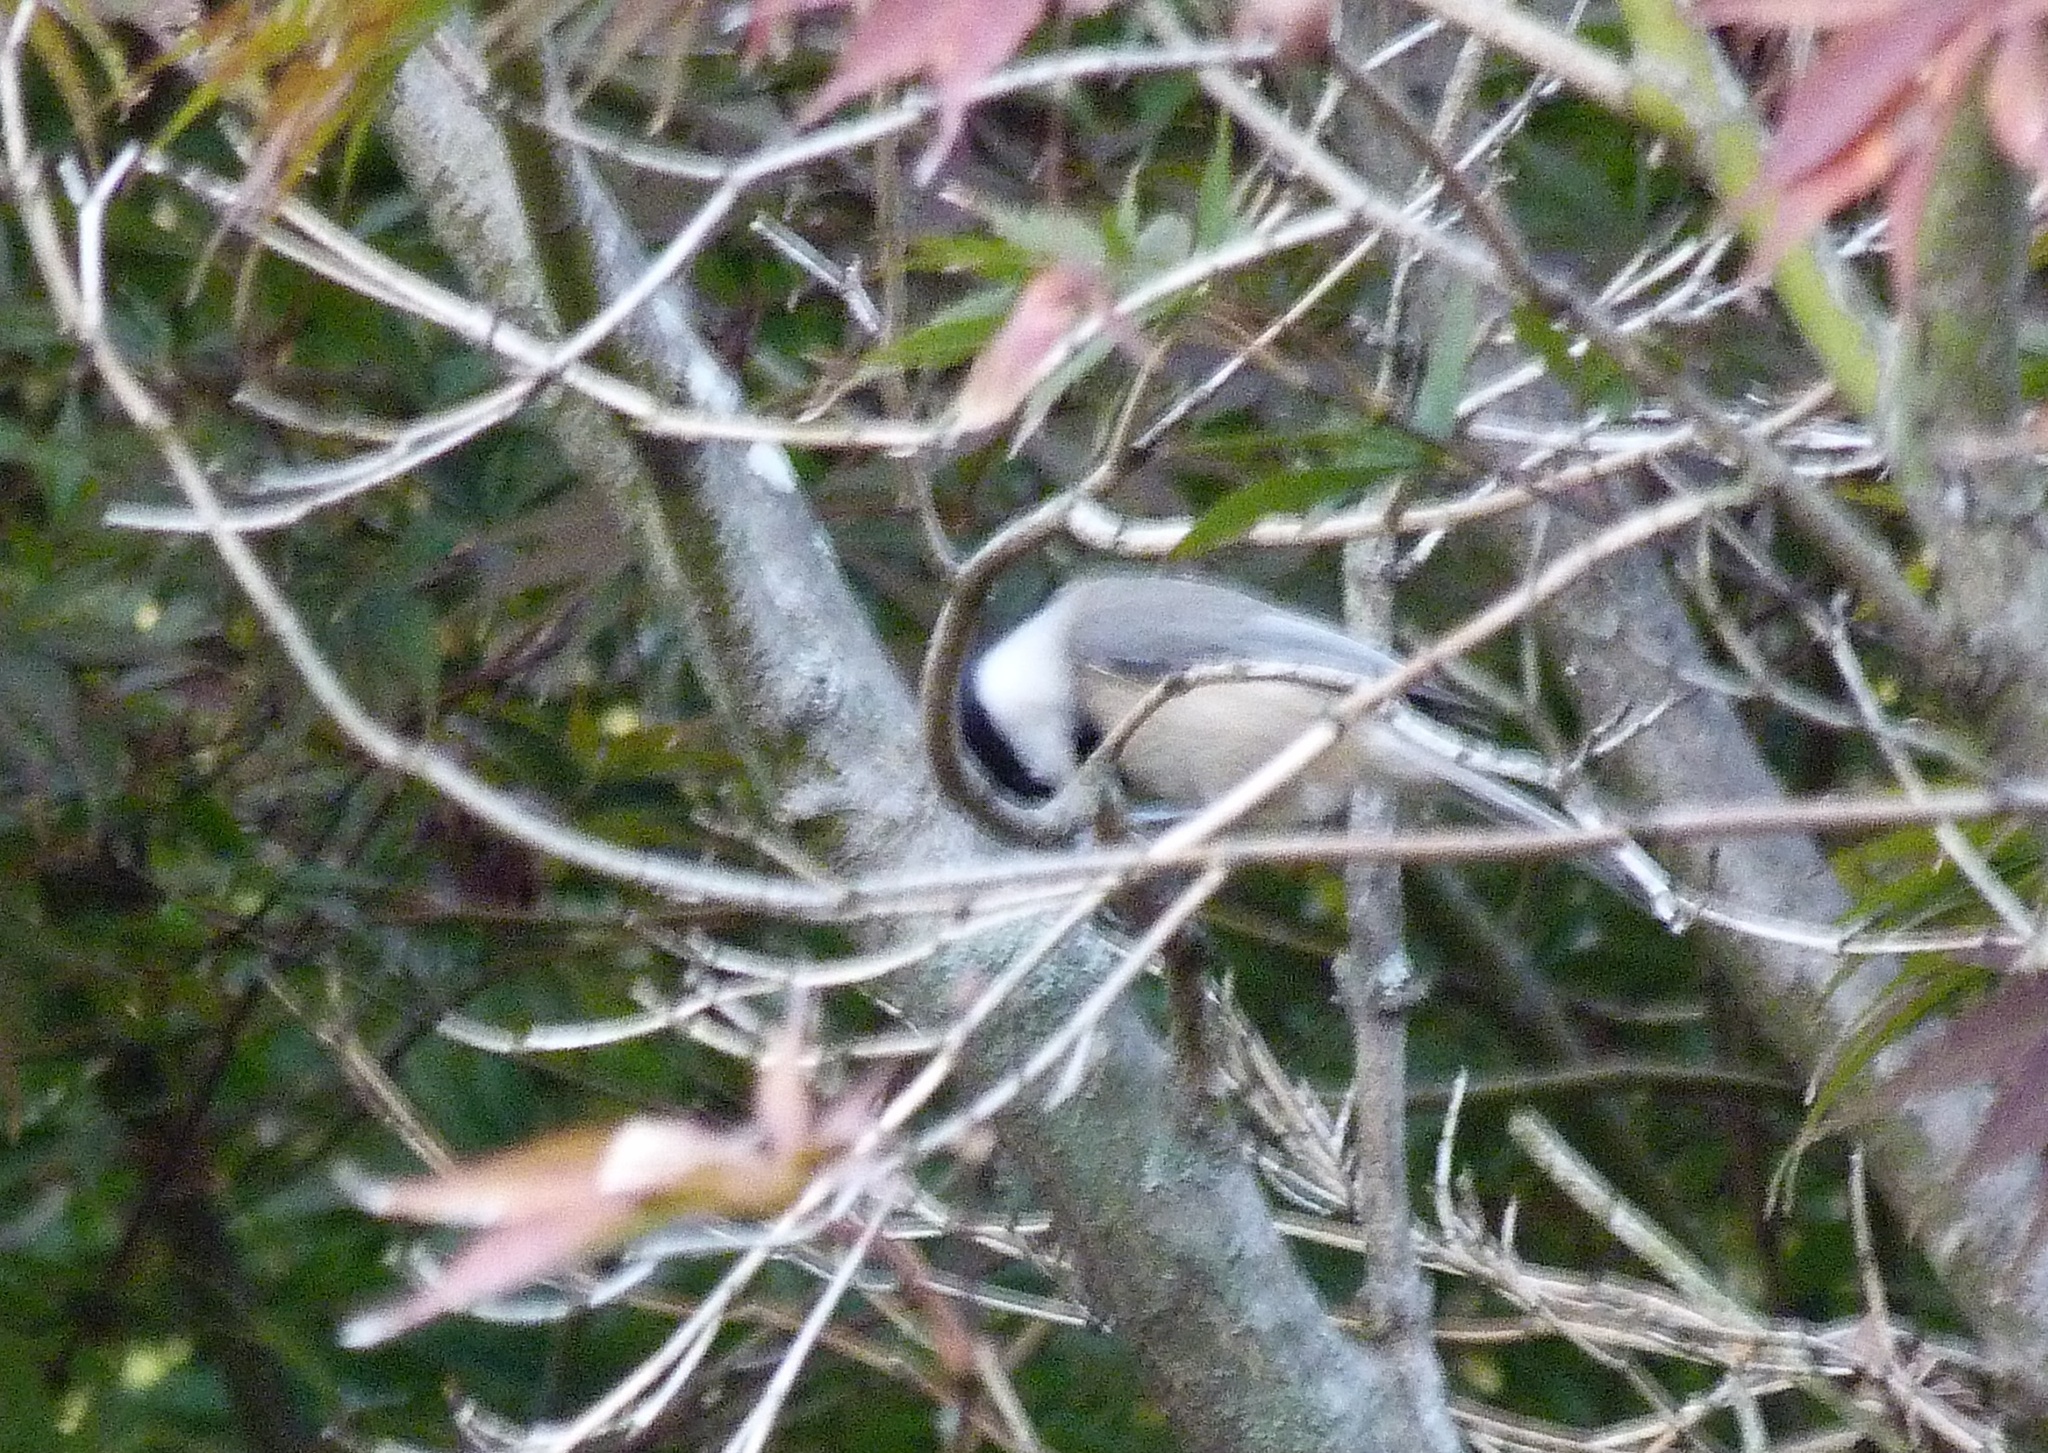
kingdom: Animalia
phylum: Chordata
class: Aves
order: Passeriformes
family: Paridae
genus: Poecile
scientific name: Poecile carolinensis
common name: Carolina chickadee
